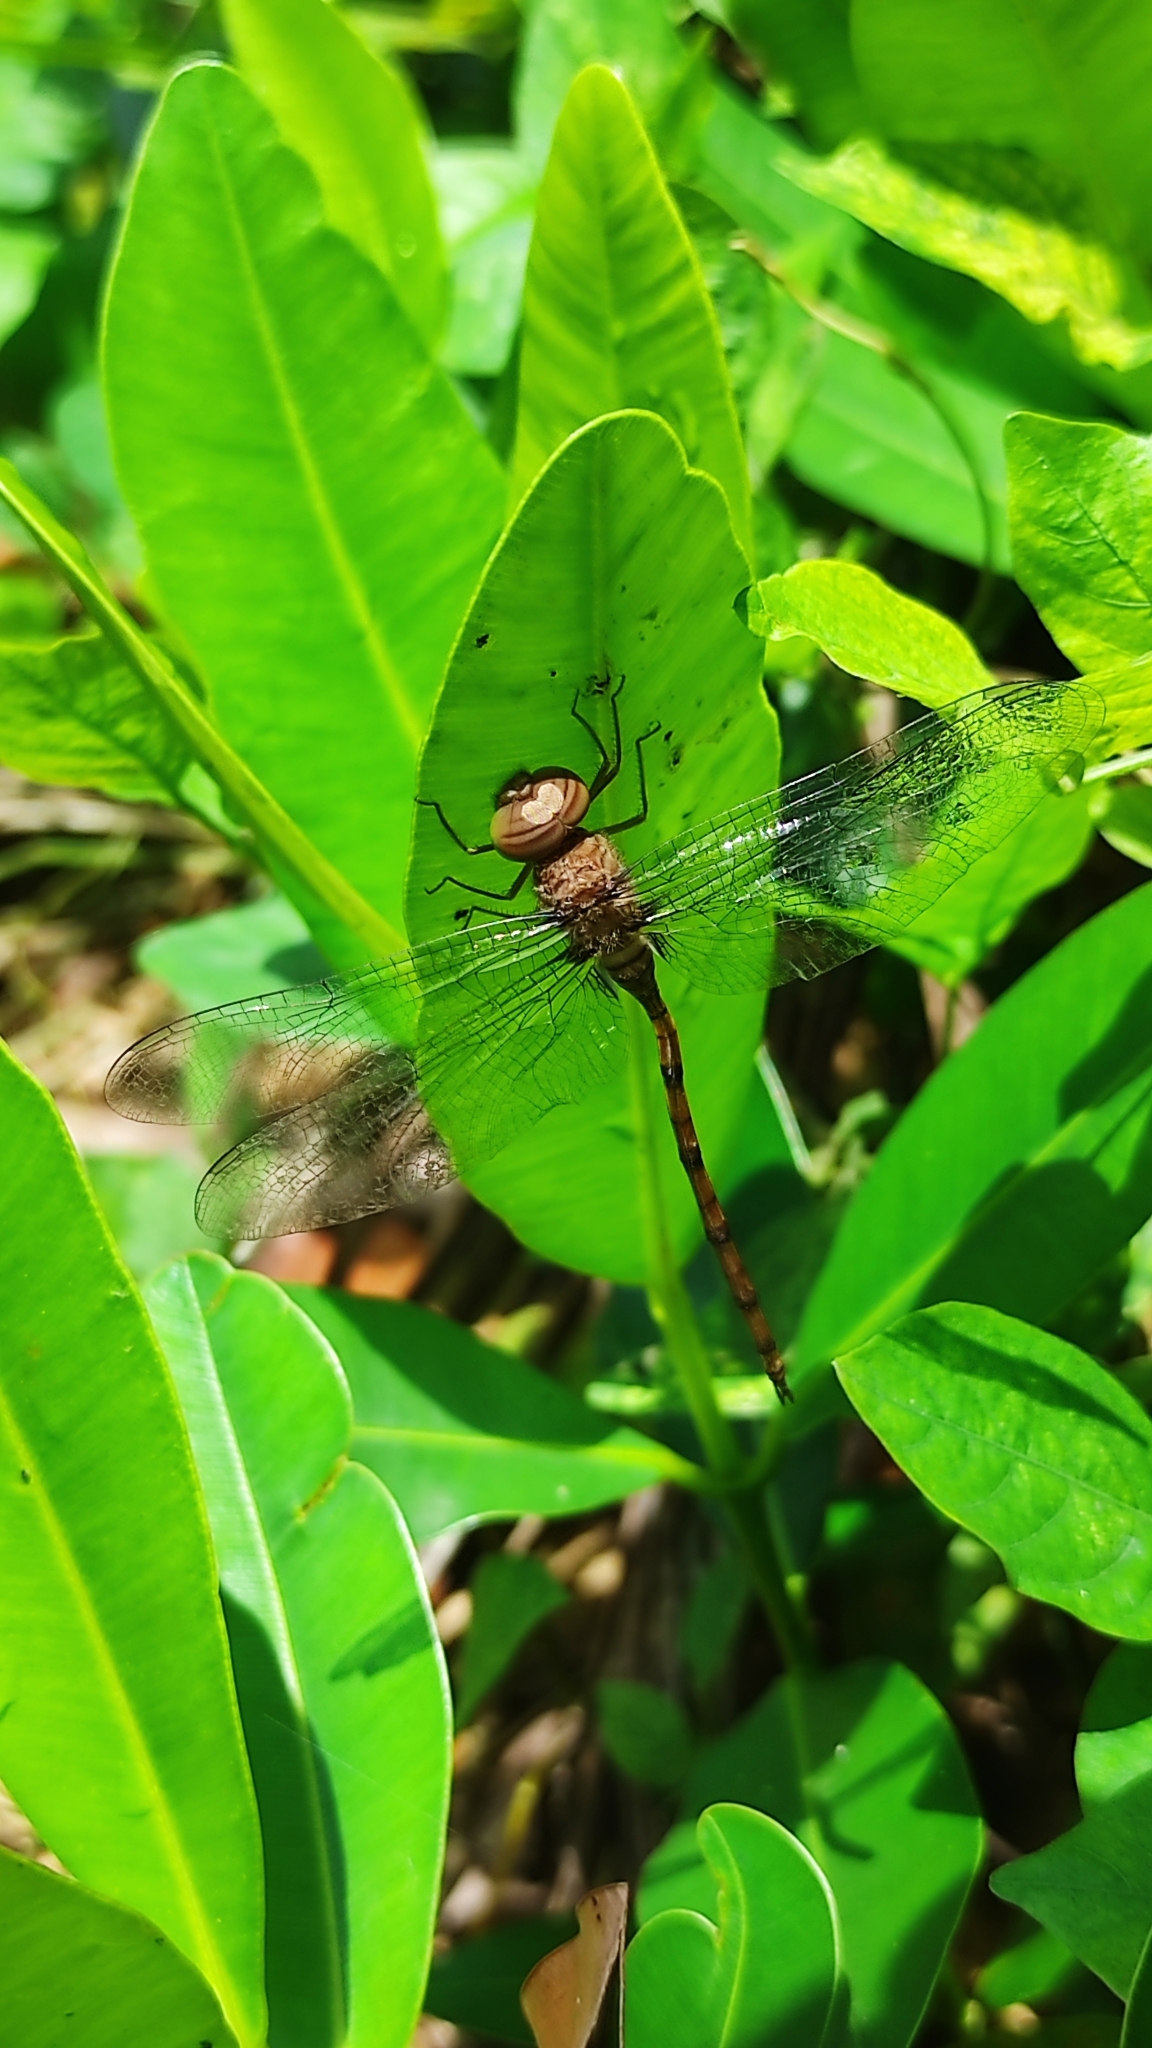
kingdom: Animalia
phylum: Arthropoda
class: Insecta
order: Odonata
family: Libellulidae
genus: Zyxomma
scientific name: Zyxomma petiolatum
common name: Dingy dusk-darter
